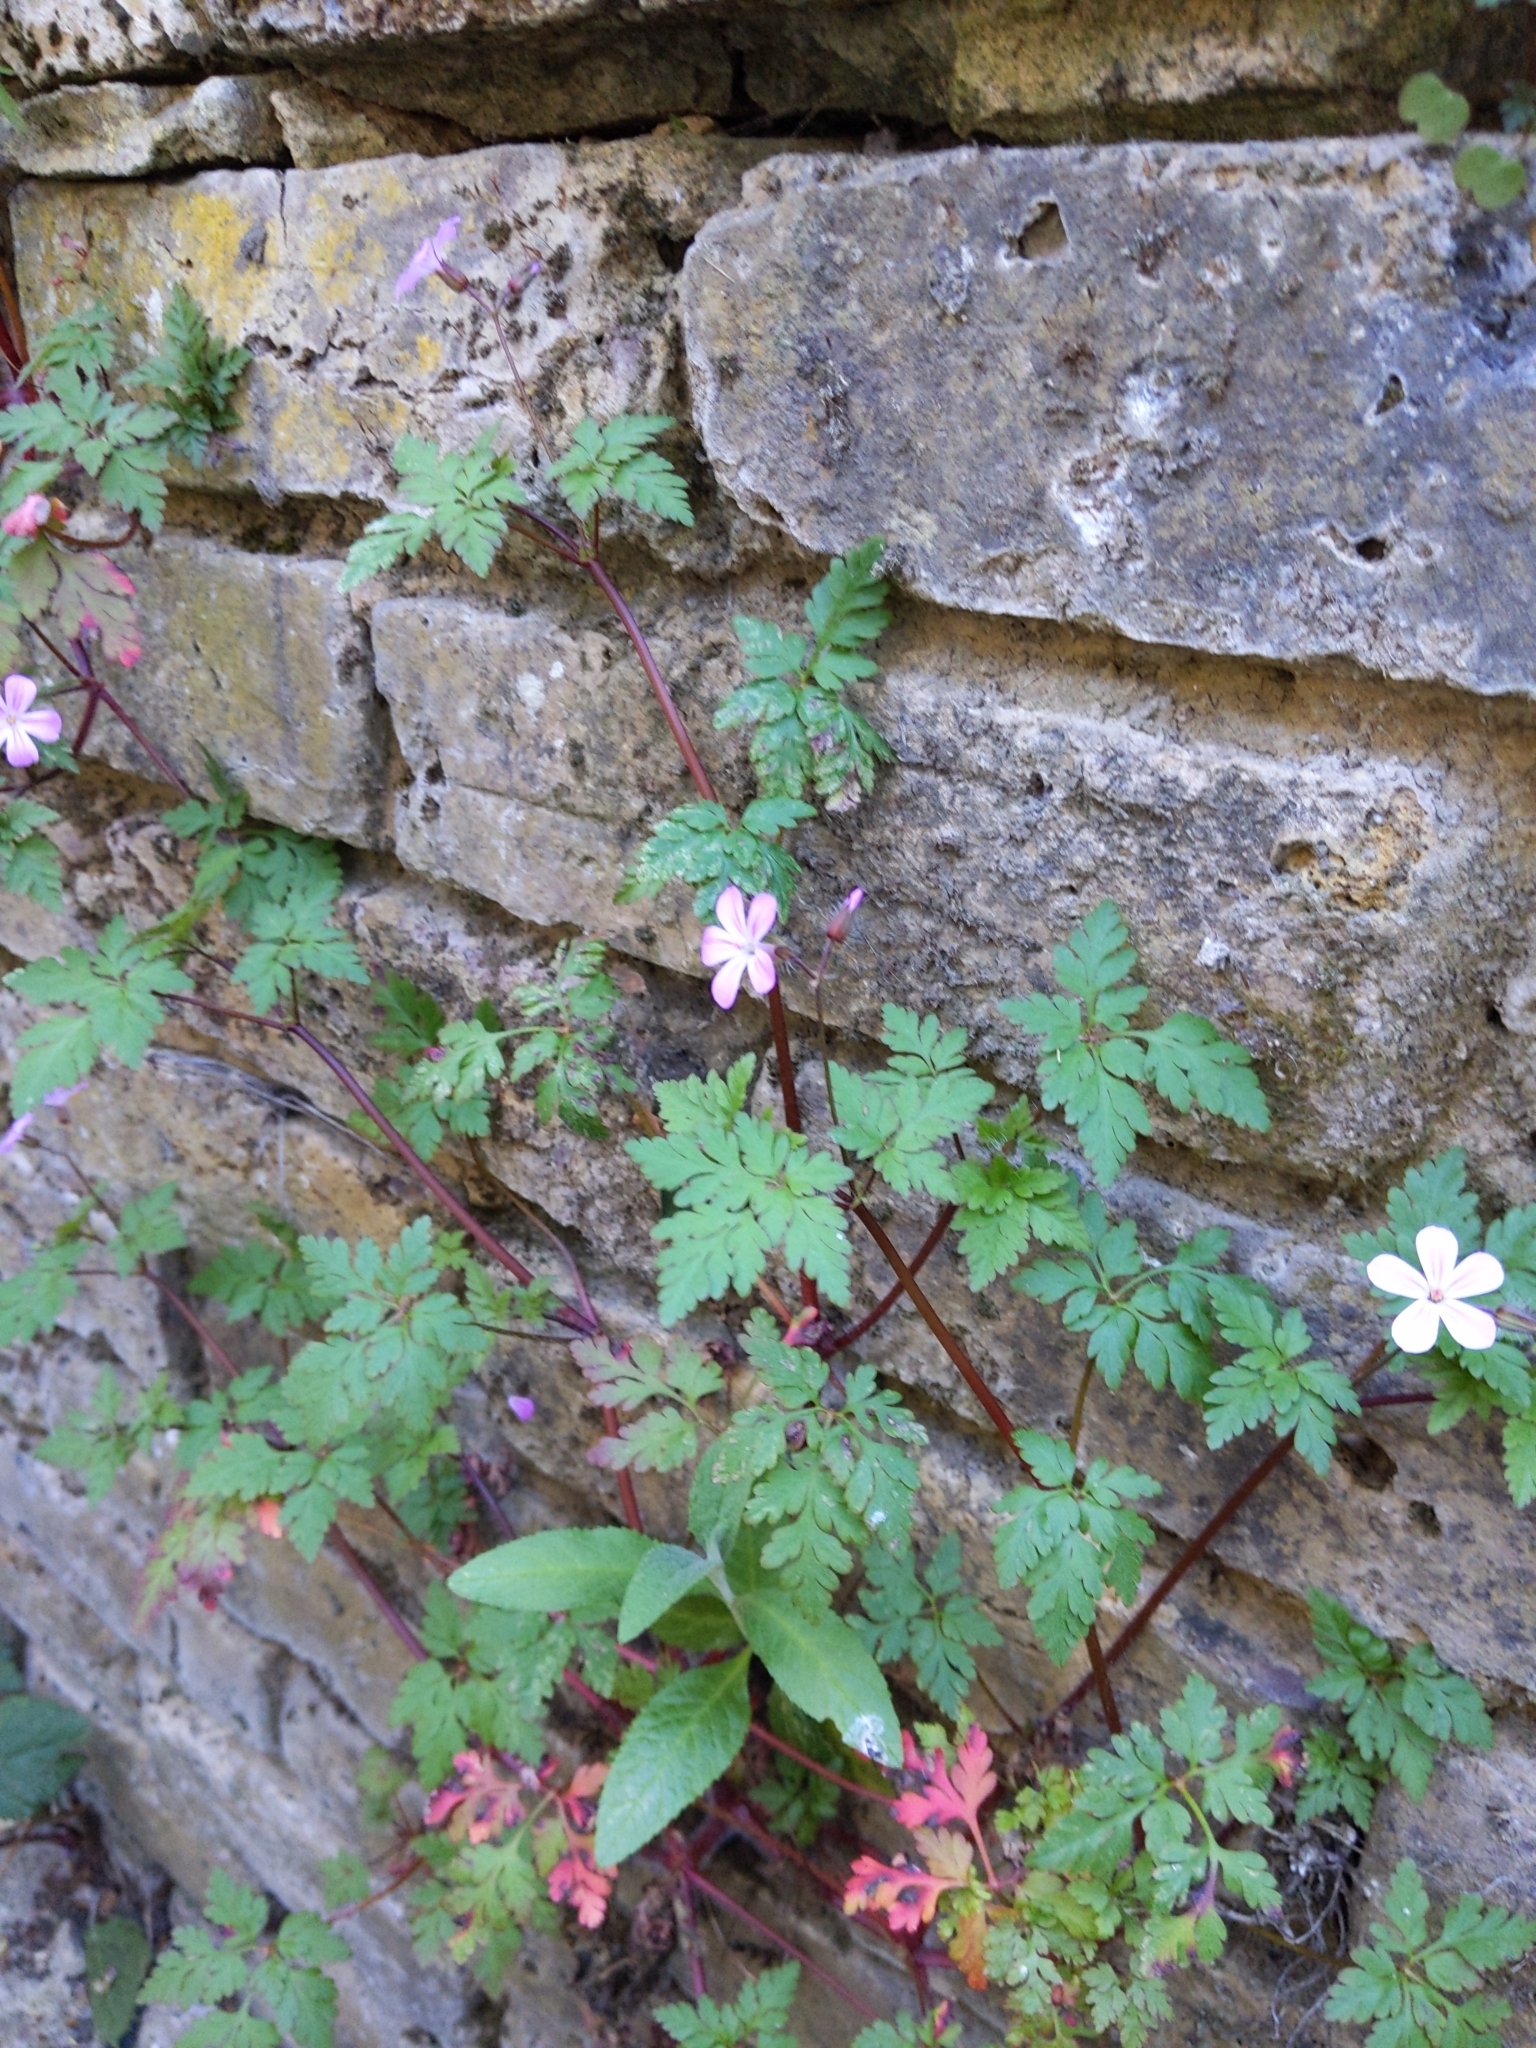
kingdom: Plantae
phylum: Tracheophyta
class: Magnoliopsida
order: Geraniales
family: Geraniaceae
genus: Geranium
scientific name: Geranium robertianum
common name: Herb-robert
